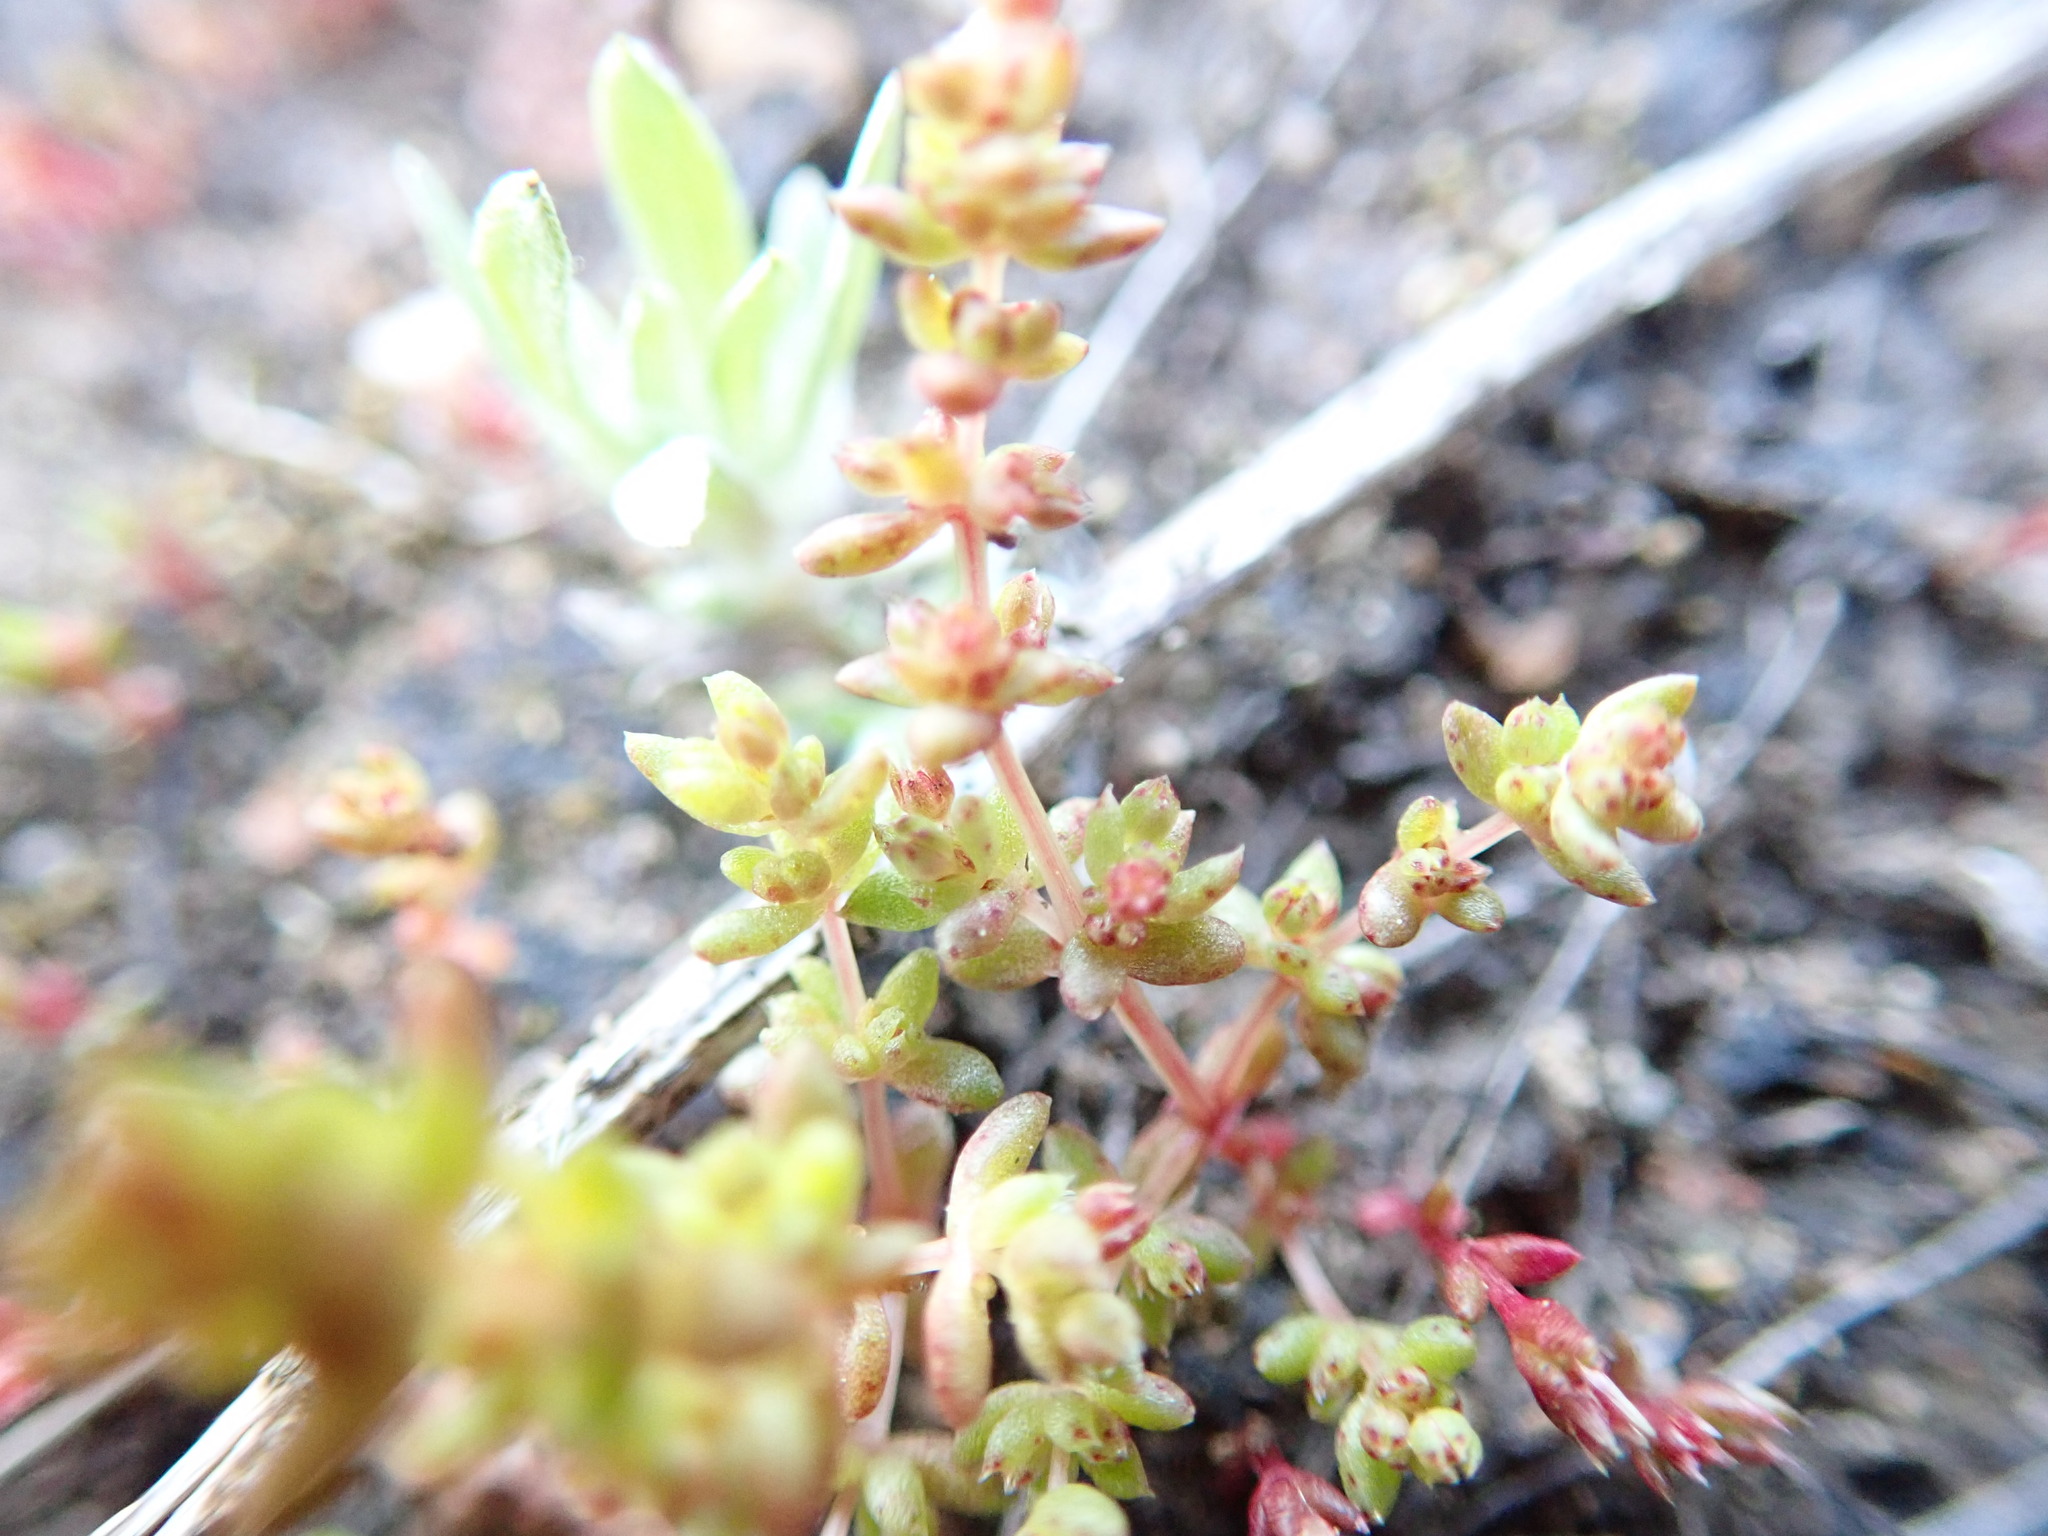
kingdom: Plantae
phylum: Tracheophyta
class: Magnoliopsida
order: Saxifragales
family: Crassulaceae
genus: Crassula
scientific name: Crassula connata
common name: Erect pygmyweed
